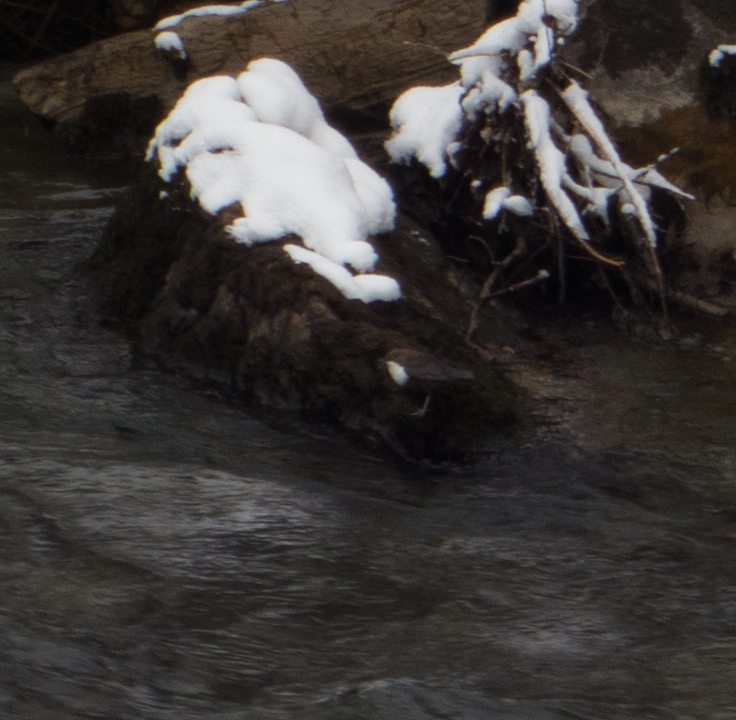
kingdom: Animalia
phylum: Chordata
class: Aves
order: Passeriformes
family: Cinclidae
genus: Cinclus
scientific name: Cinclus cinclus
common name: White-throated dipper
